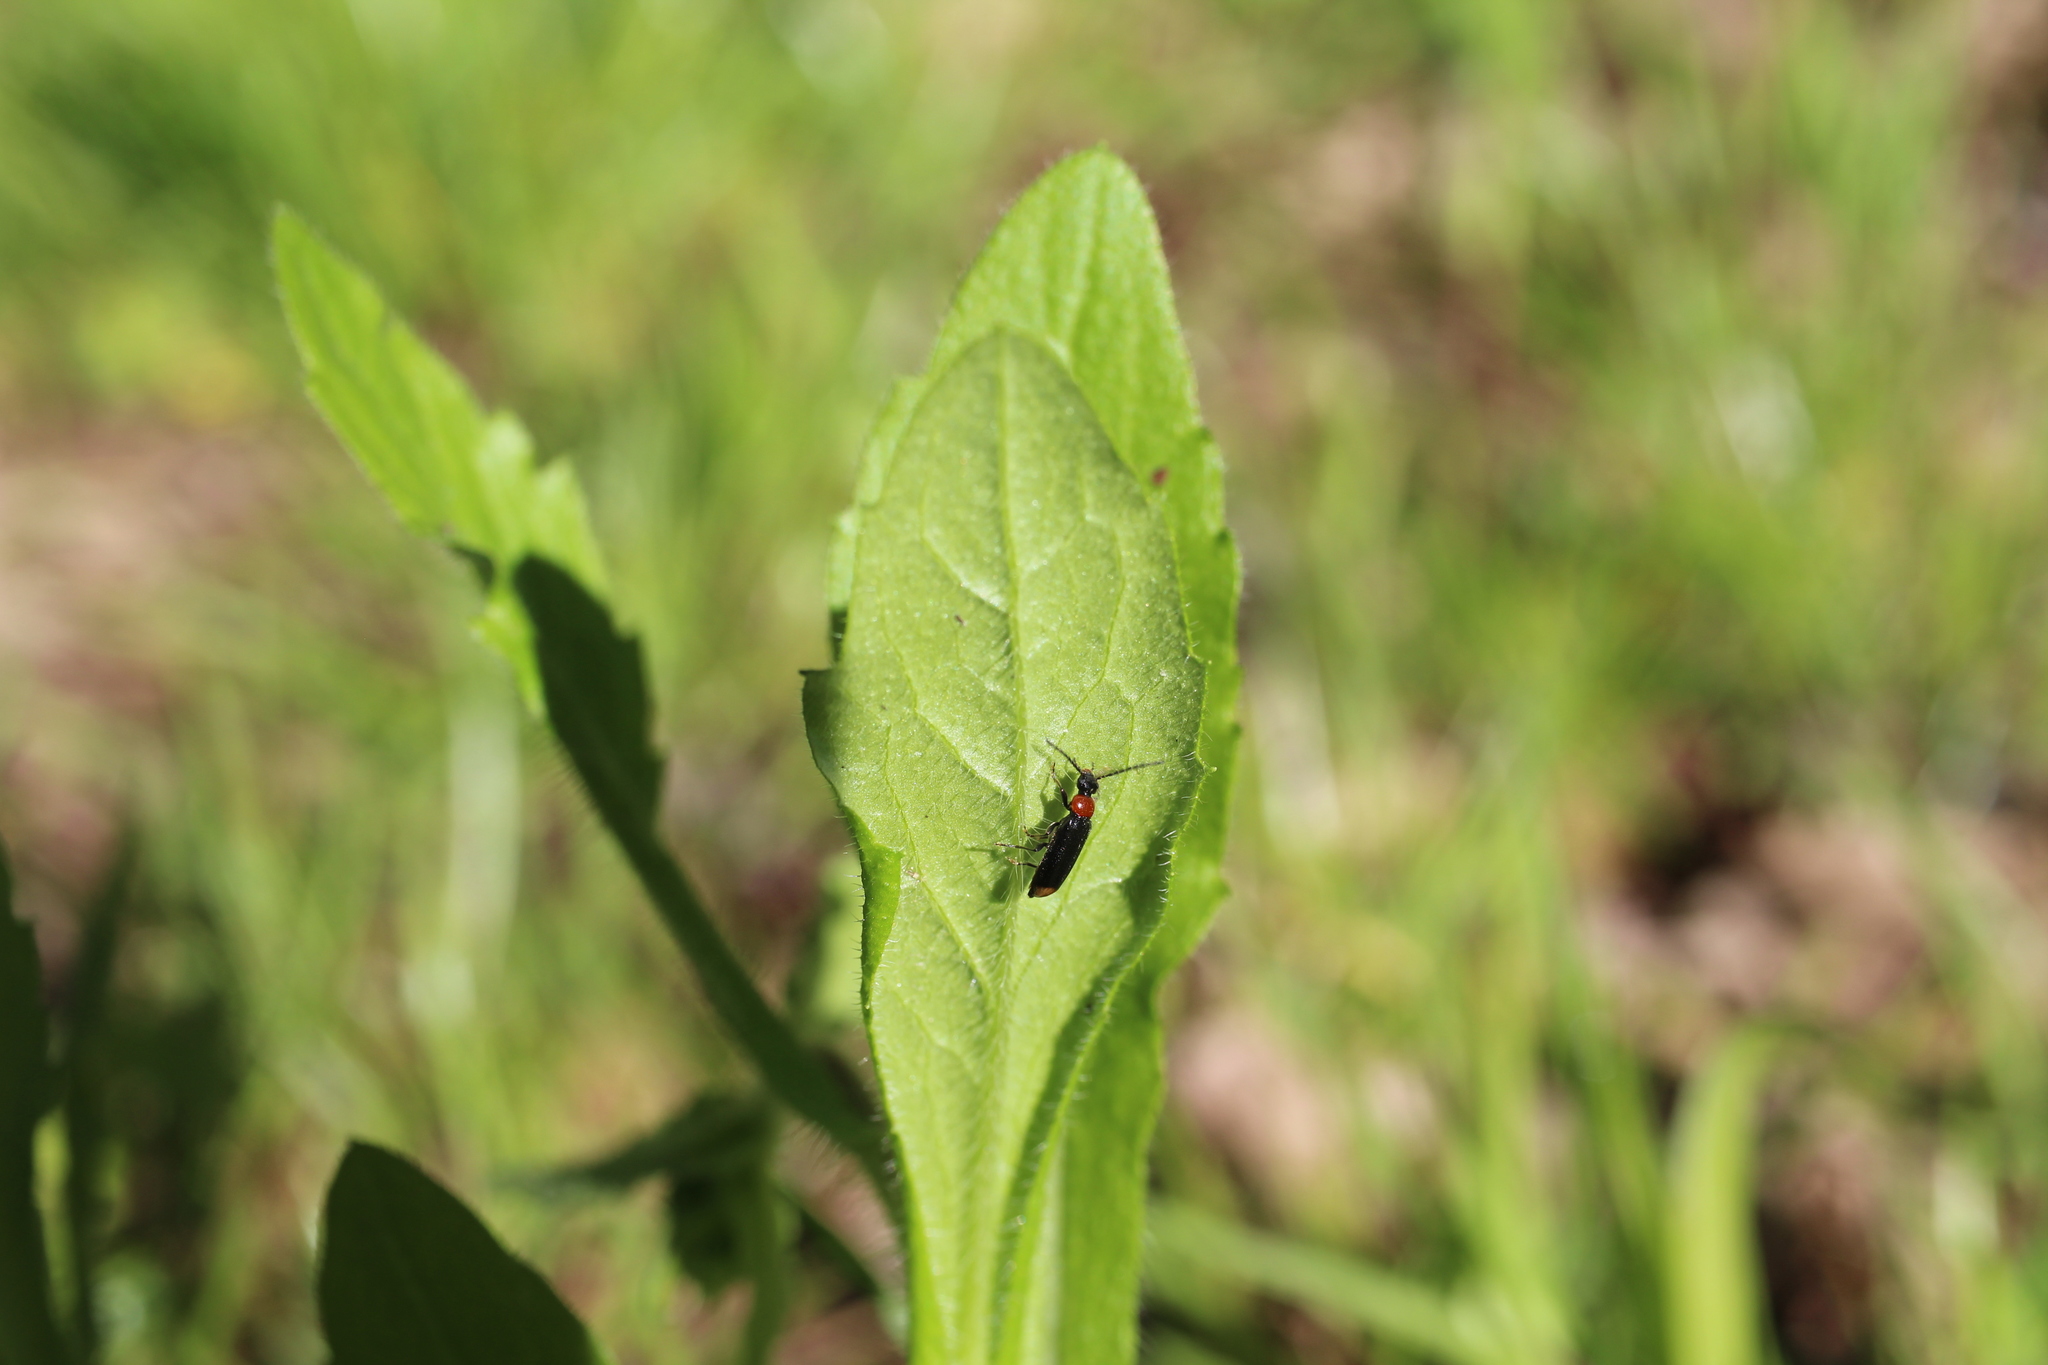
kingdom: Animalia
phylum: Arthropoda
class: Insecta
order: Coleoptera
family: Pyrochroidae
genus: Pedilus
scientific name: Pedilus terminalis
